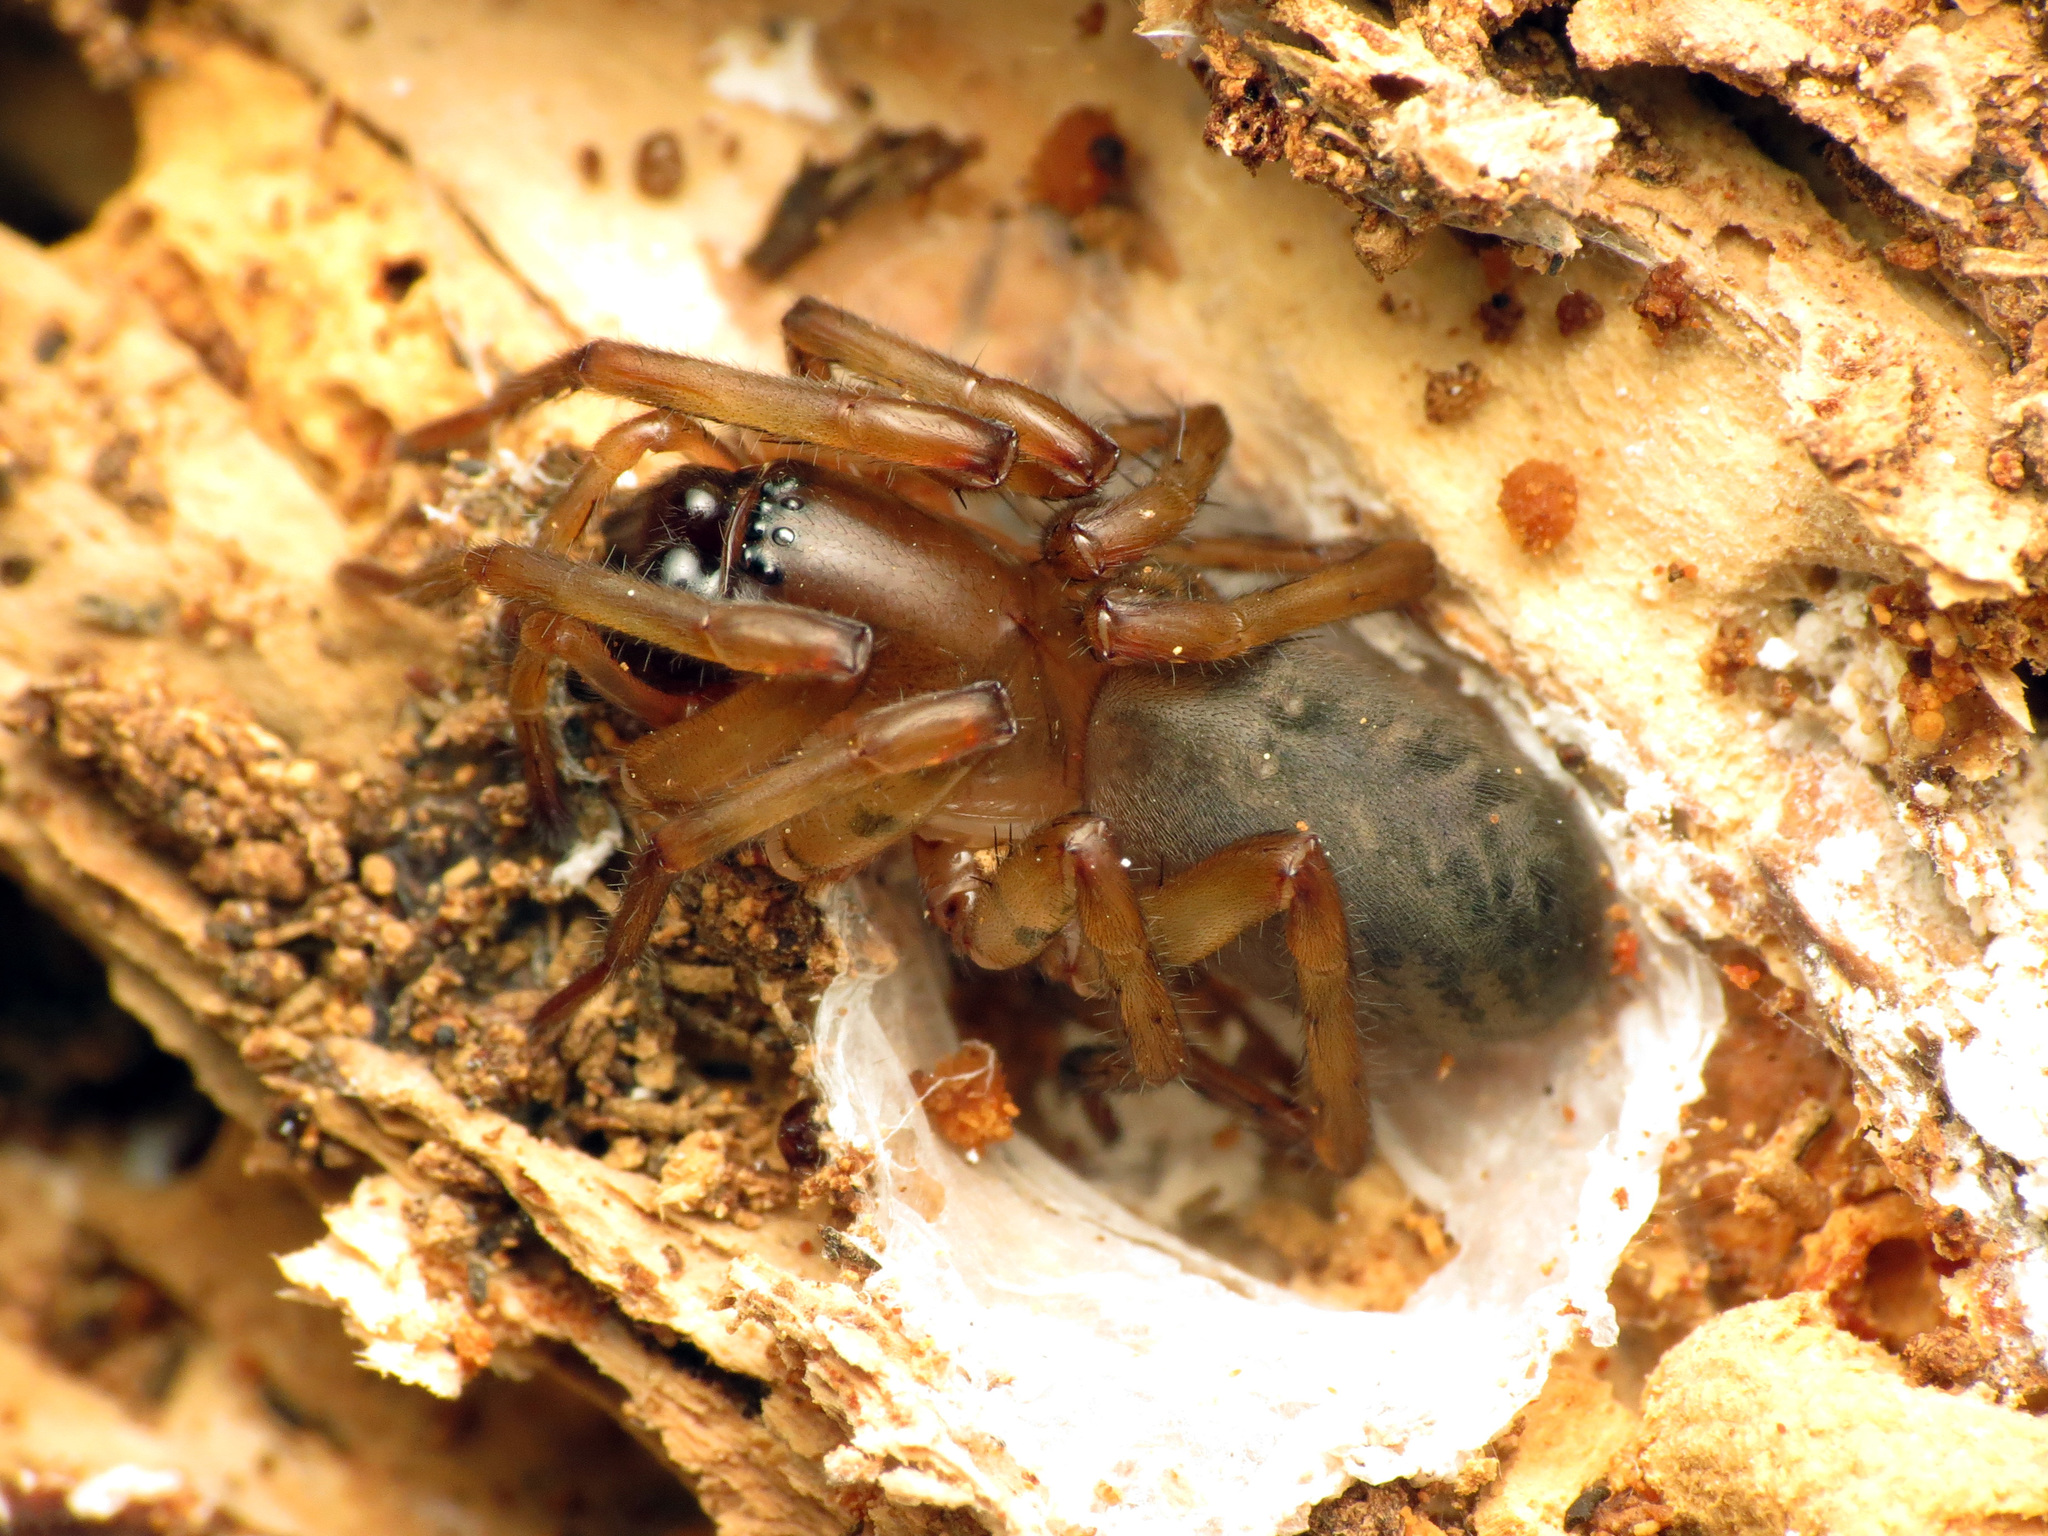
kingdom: Animalia
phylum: Arthropoda
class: Arachnida
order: Araneae
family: Desidae
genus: Mamoea
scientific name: Mamoea rufa
